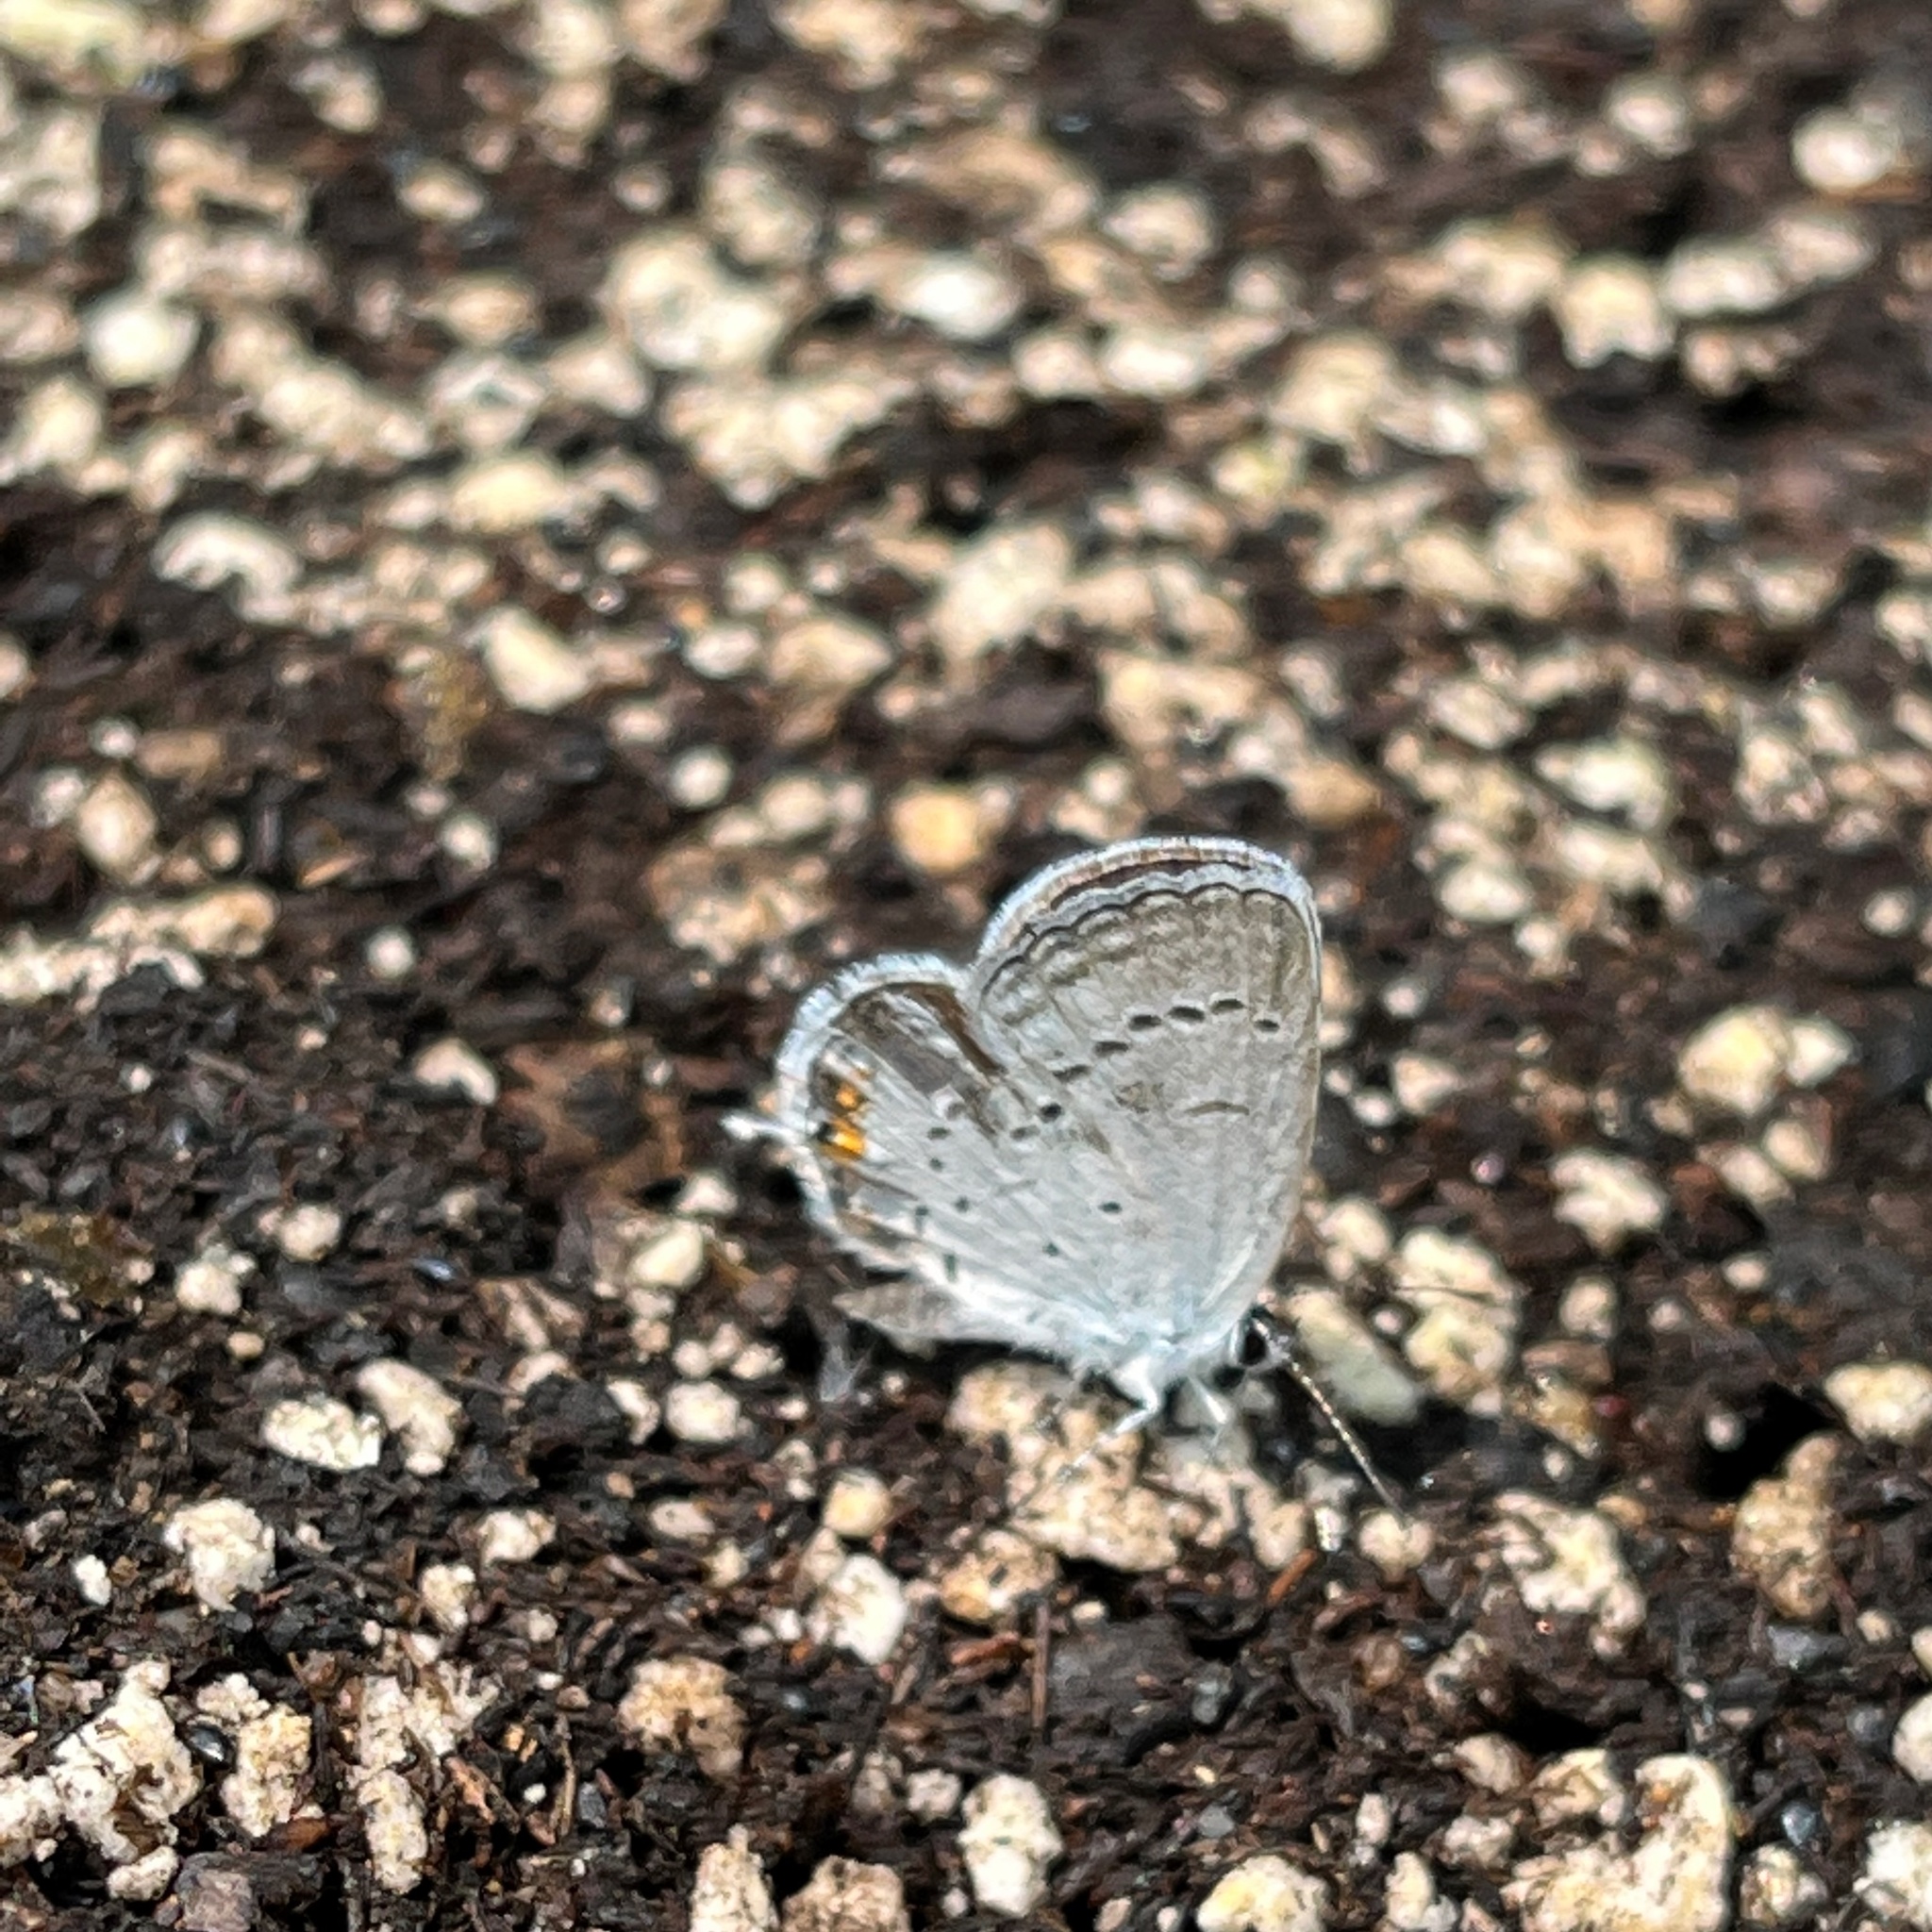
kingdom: Animalia
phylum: Arthropoda
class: Insecta
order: Lepidoptera
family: Lycaenidae
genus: Elkalyce
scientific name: Elkalyce comyntas
